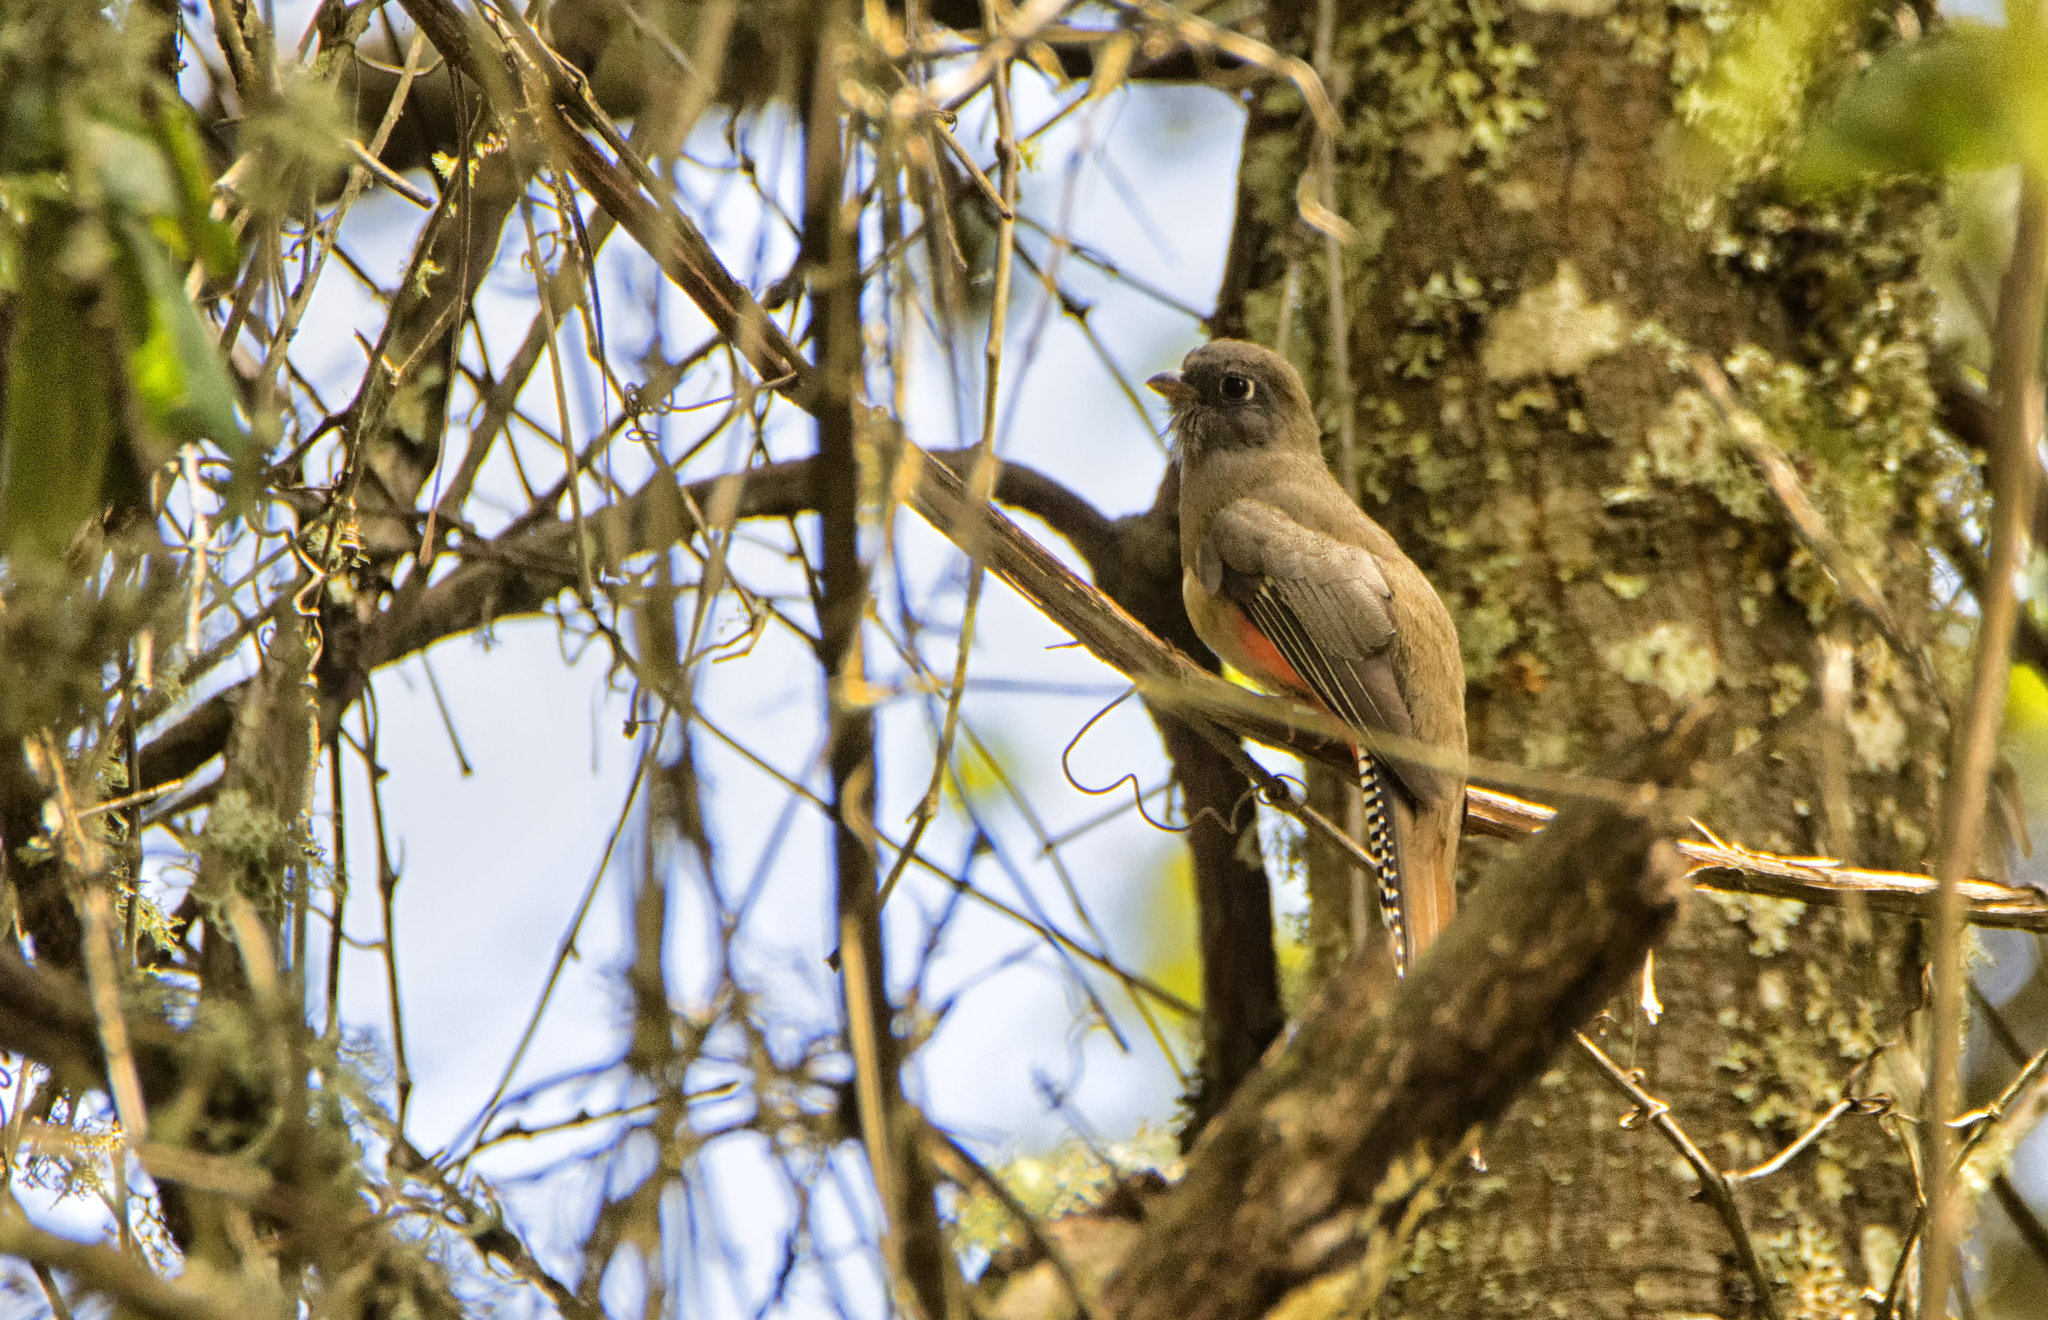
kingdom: Animalia
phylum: Chordata
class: Aves
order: Trogoniformes
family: Trogonidae
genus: Trogon
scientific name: Trogon mexicanus
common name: Mountain trogon
